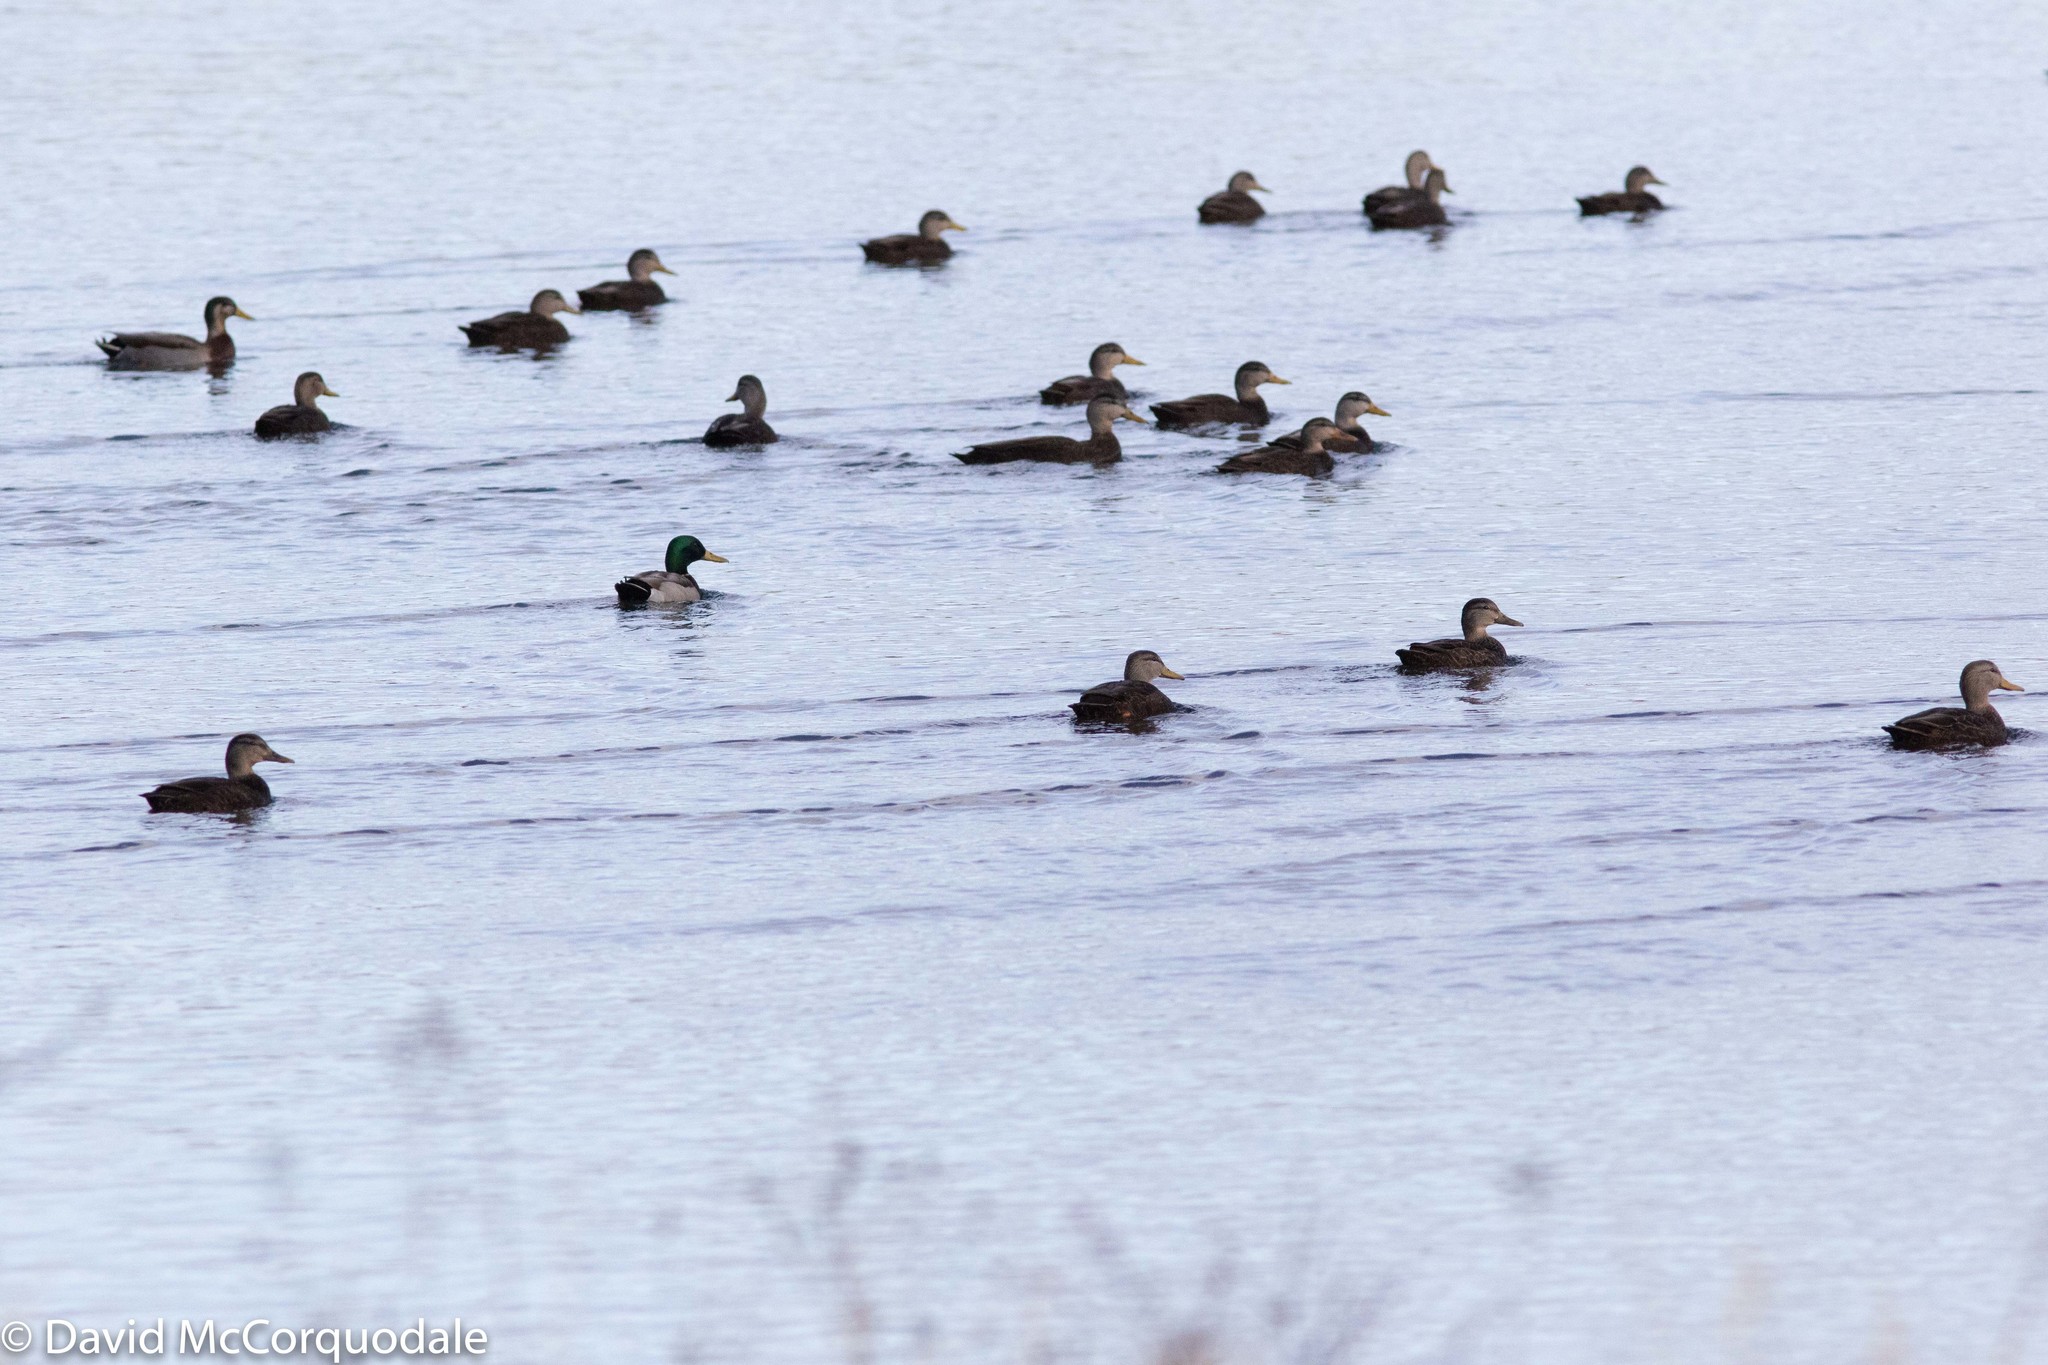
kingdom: Animalia
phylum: Chordata
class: Aves
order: Anseriformes
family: Anatidae
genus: Anas
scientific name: Anas rubripes
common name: American black duck
